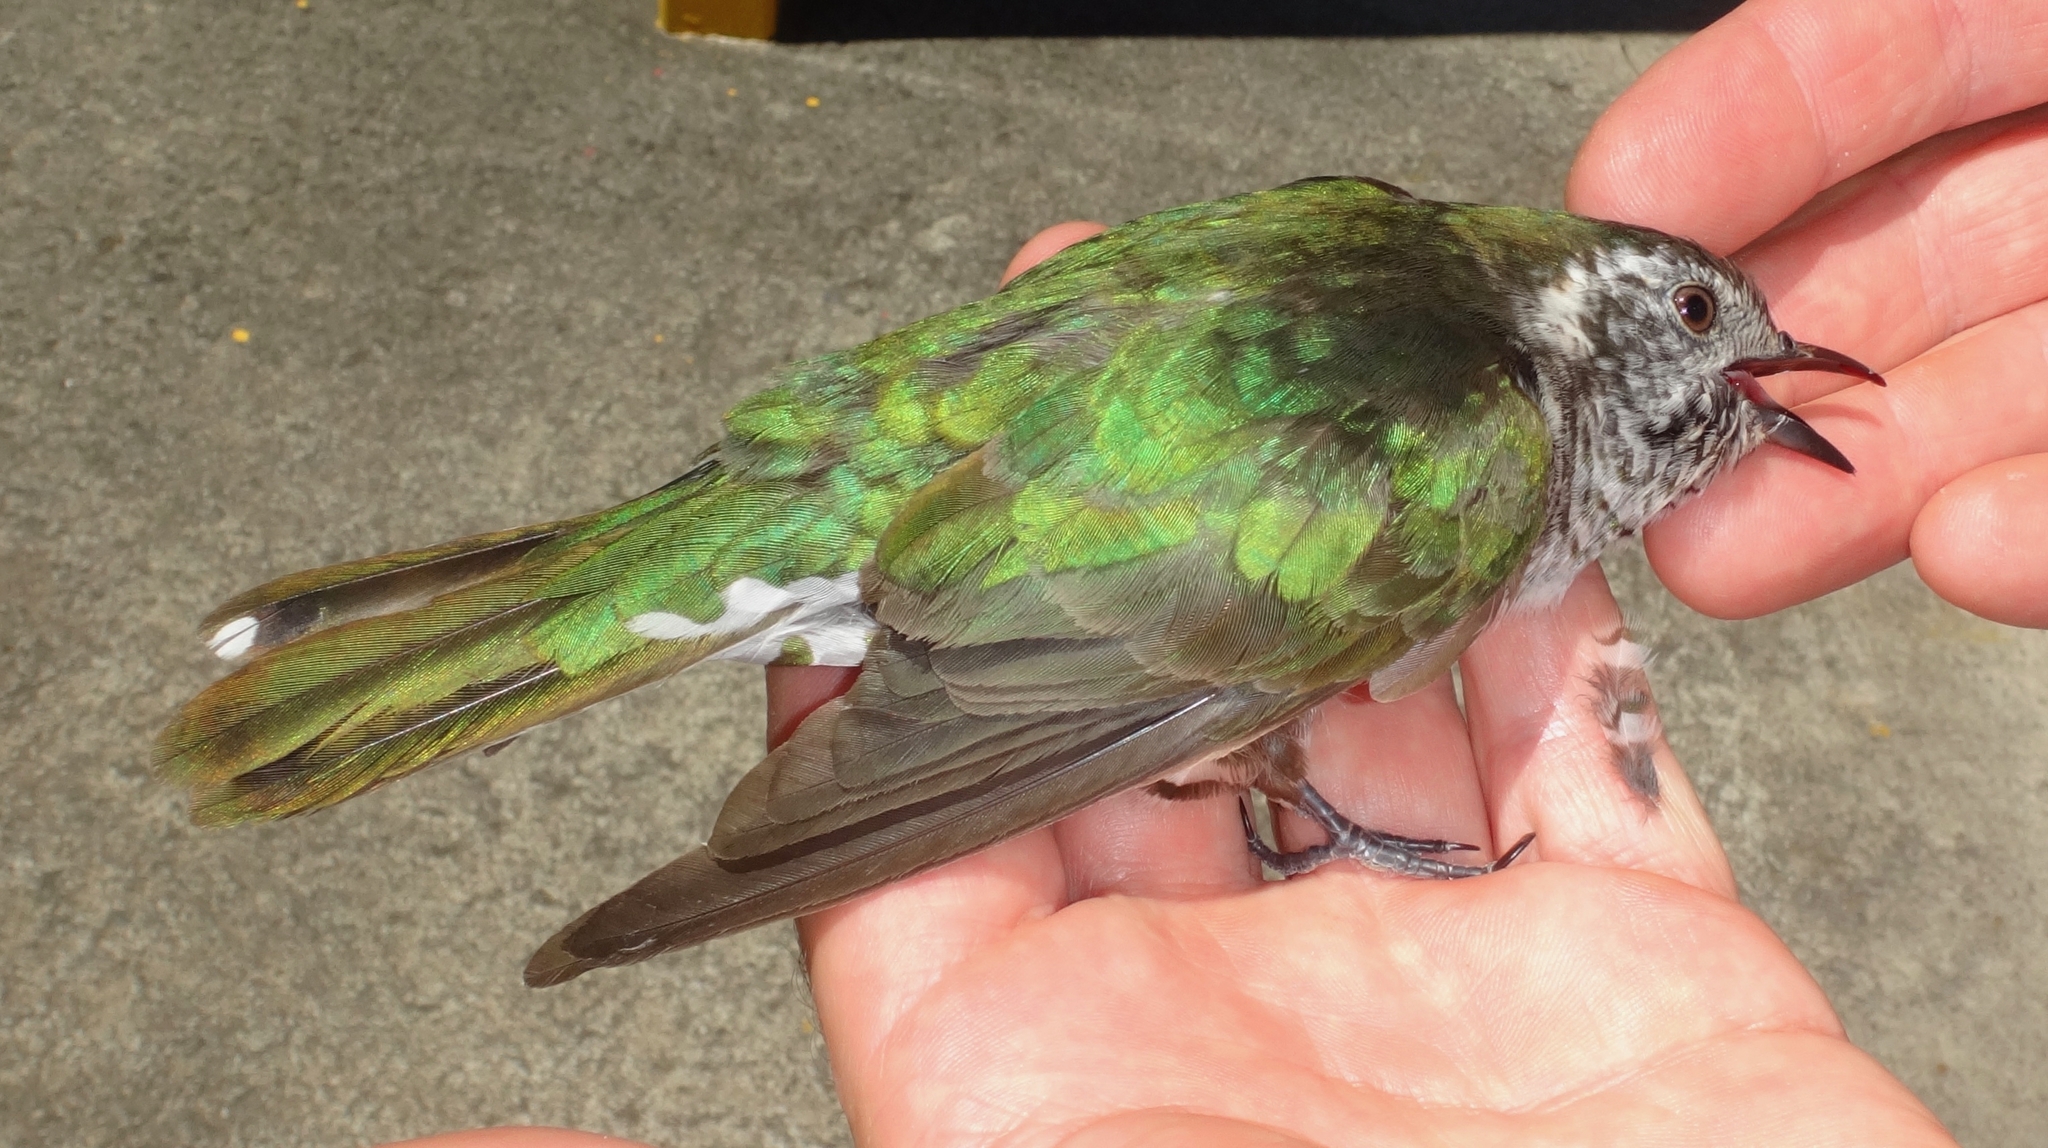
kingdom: Animalia
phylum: Chordata
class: Aves
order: Cuculiformes
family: Cuculidae
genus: Chrysococcyx
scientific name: Chrysococcyx lucidus
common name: Shining bronze cuckoo
